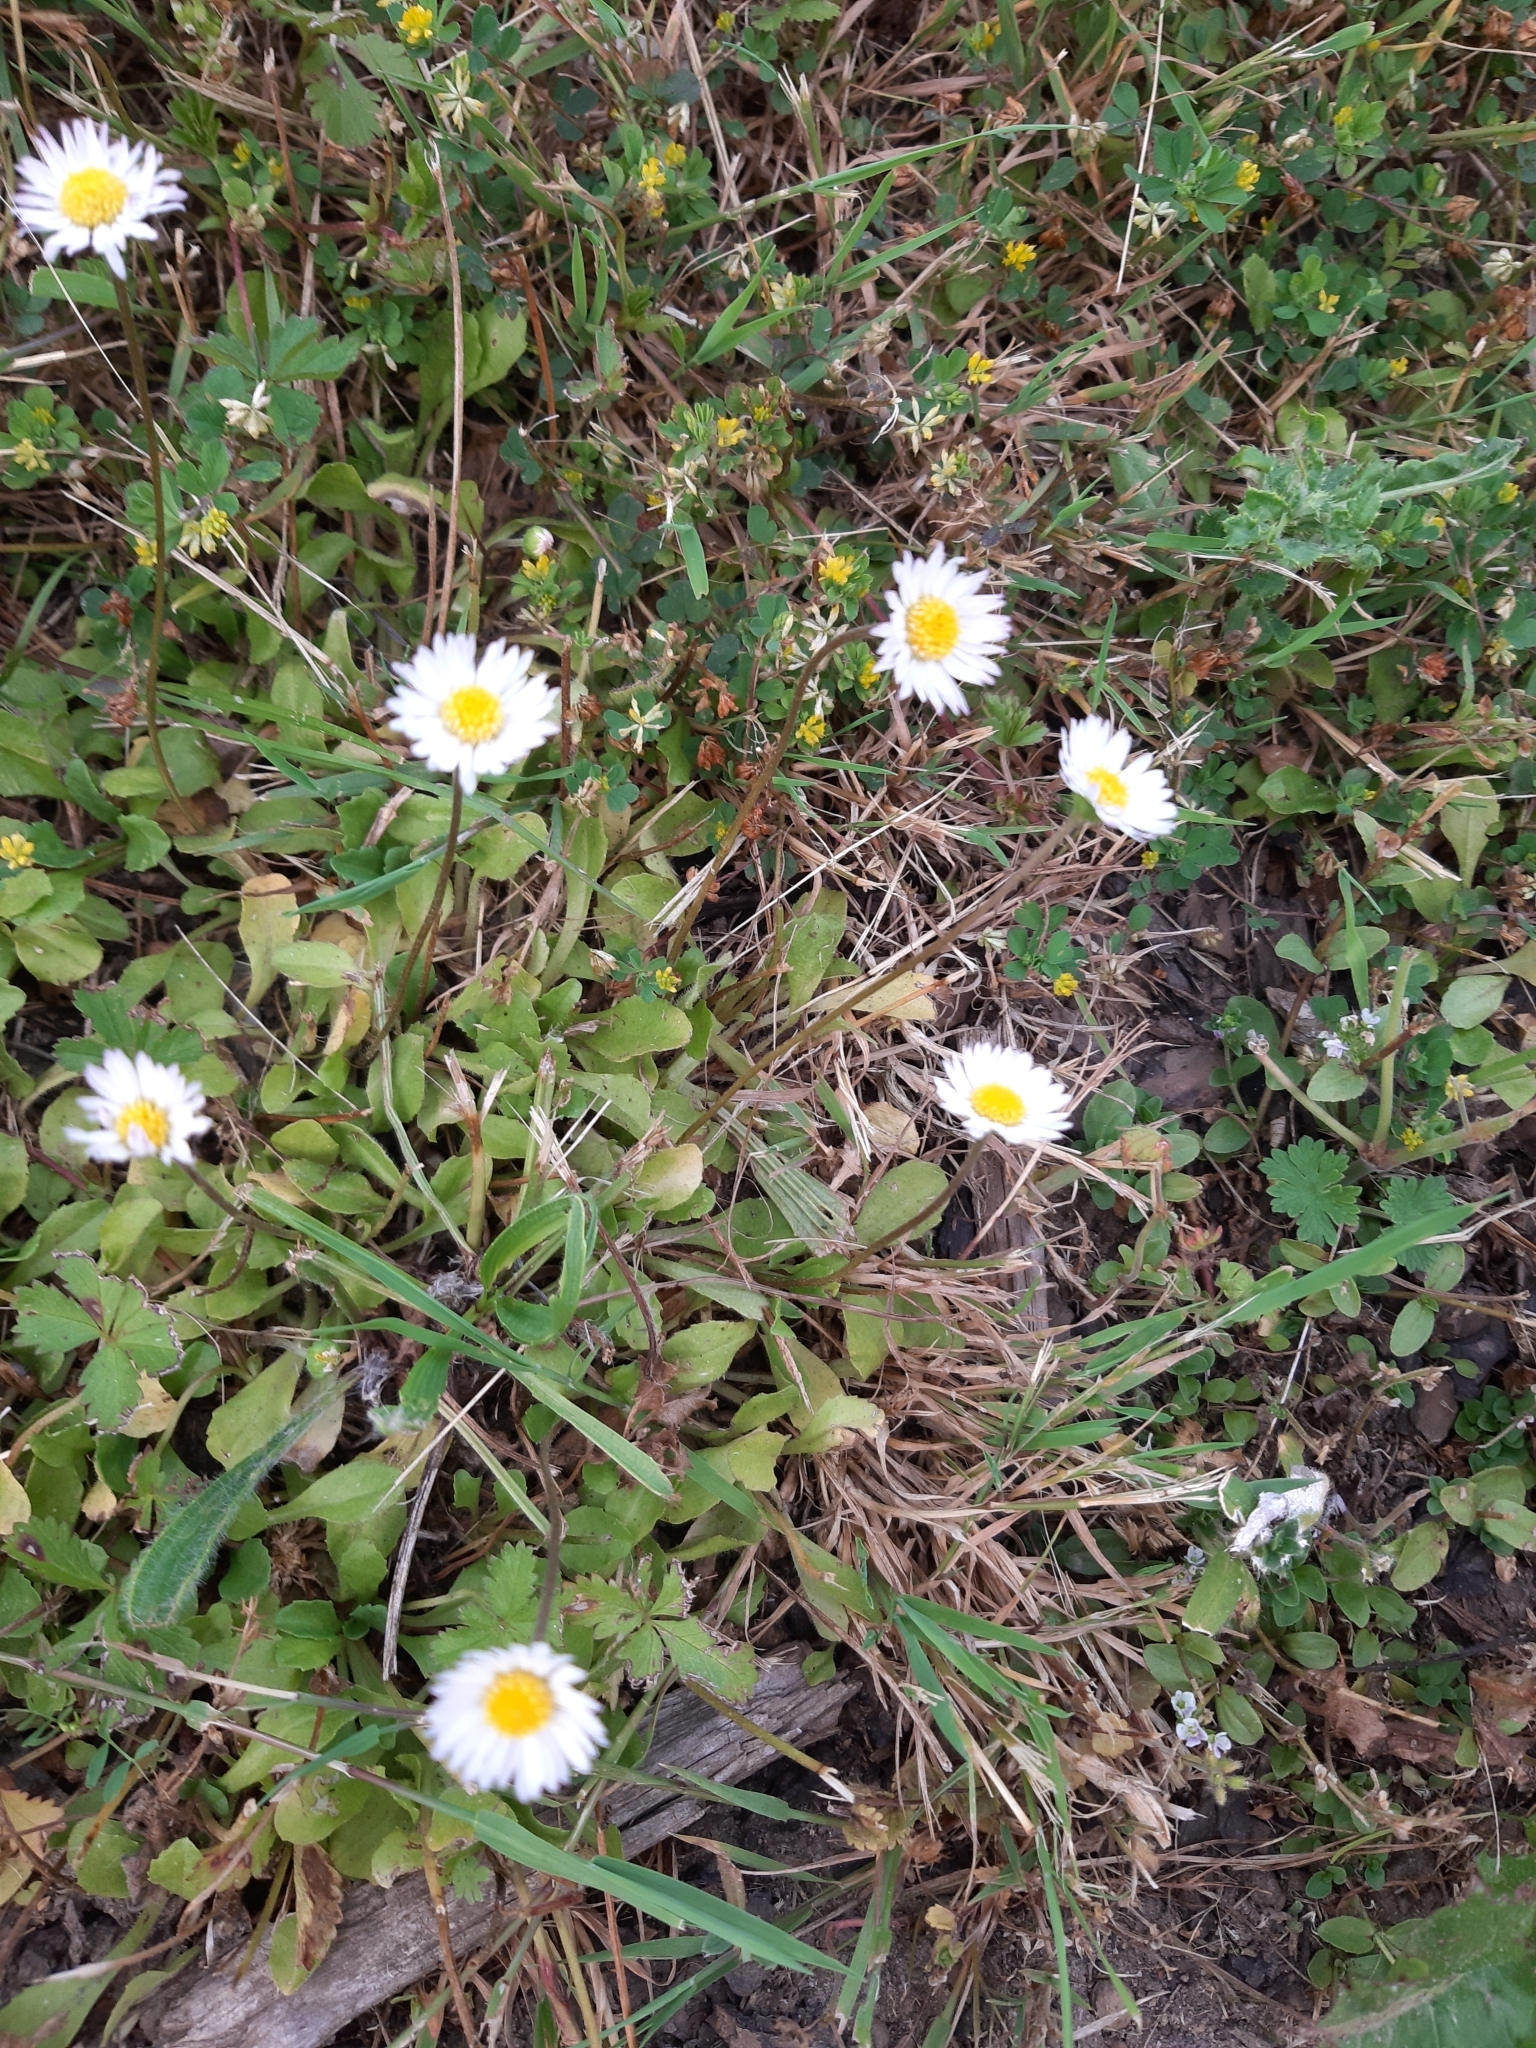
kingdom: Plantae
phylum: Tracheophyta
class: Magnoliopsida
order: Asterales
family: Asteraceae
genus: Bellis
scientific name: Bellis perennis
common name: Lawndaisy
